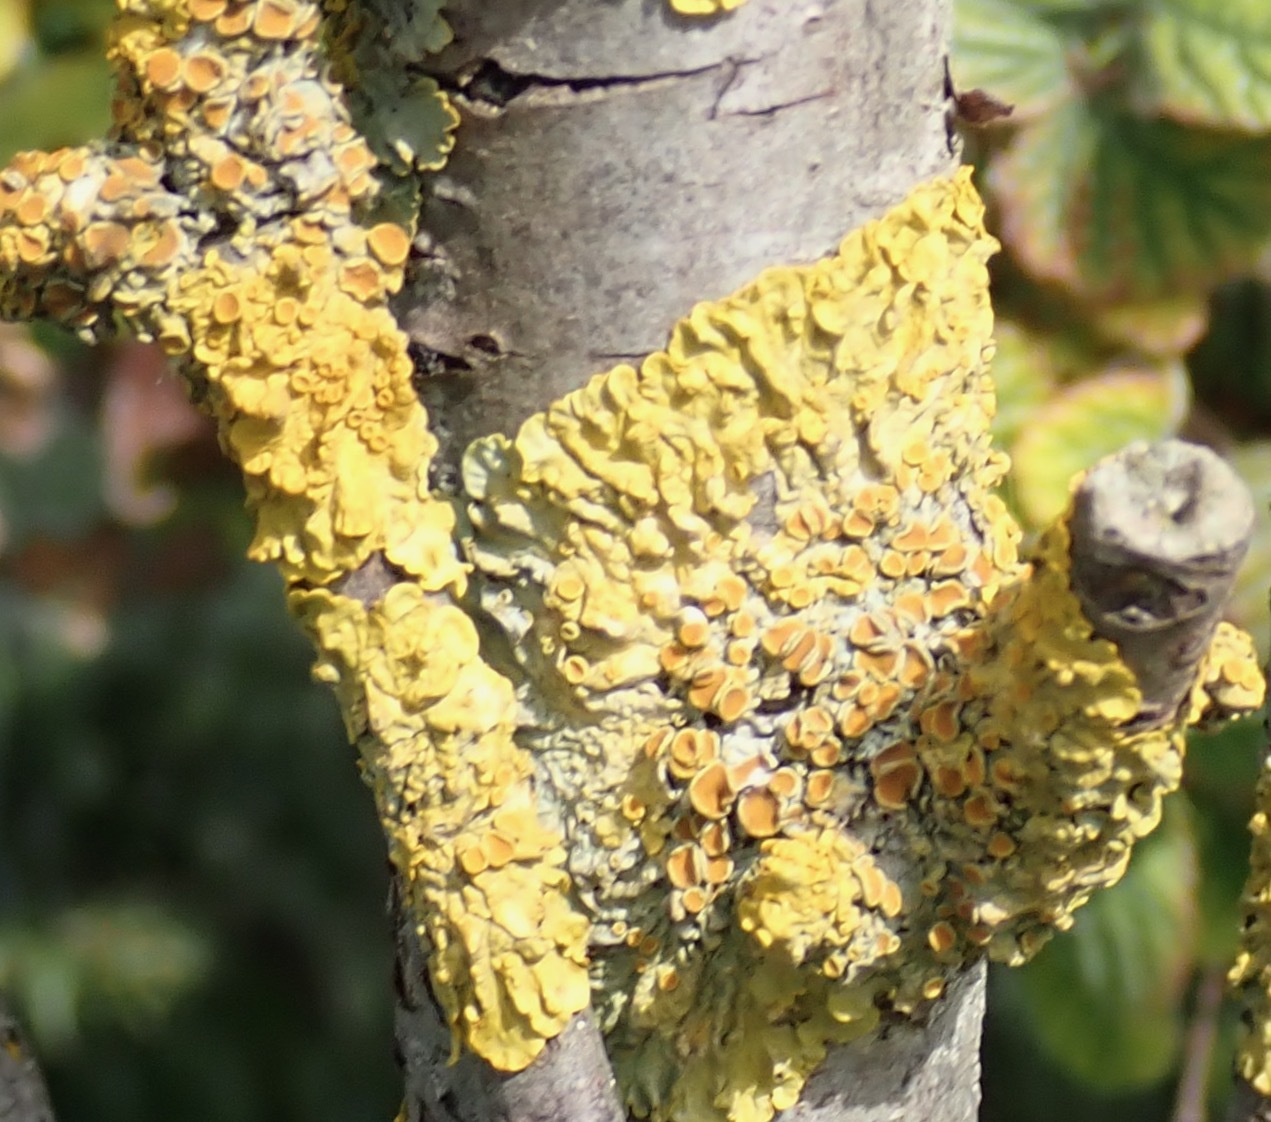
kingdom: Fungi
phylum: Ascomycota
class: Lecanoromycetes
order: Teloschistales
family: Teloschistaceae
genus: Xanthoria
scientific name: Xanthoria parietina
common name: Common orange lichen
